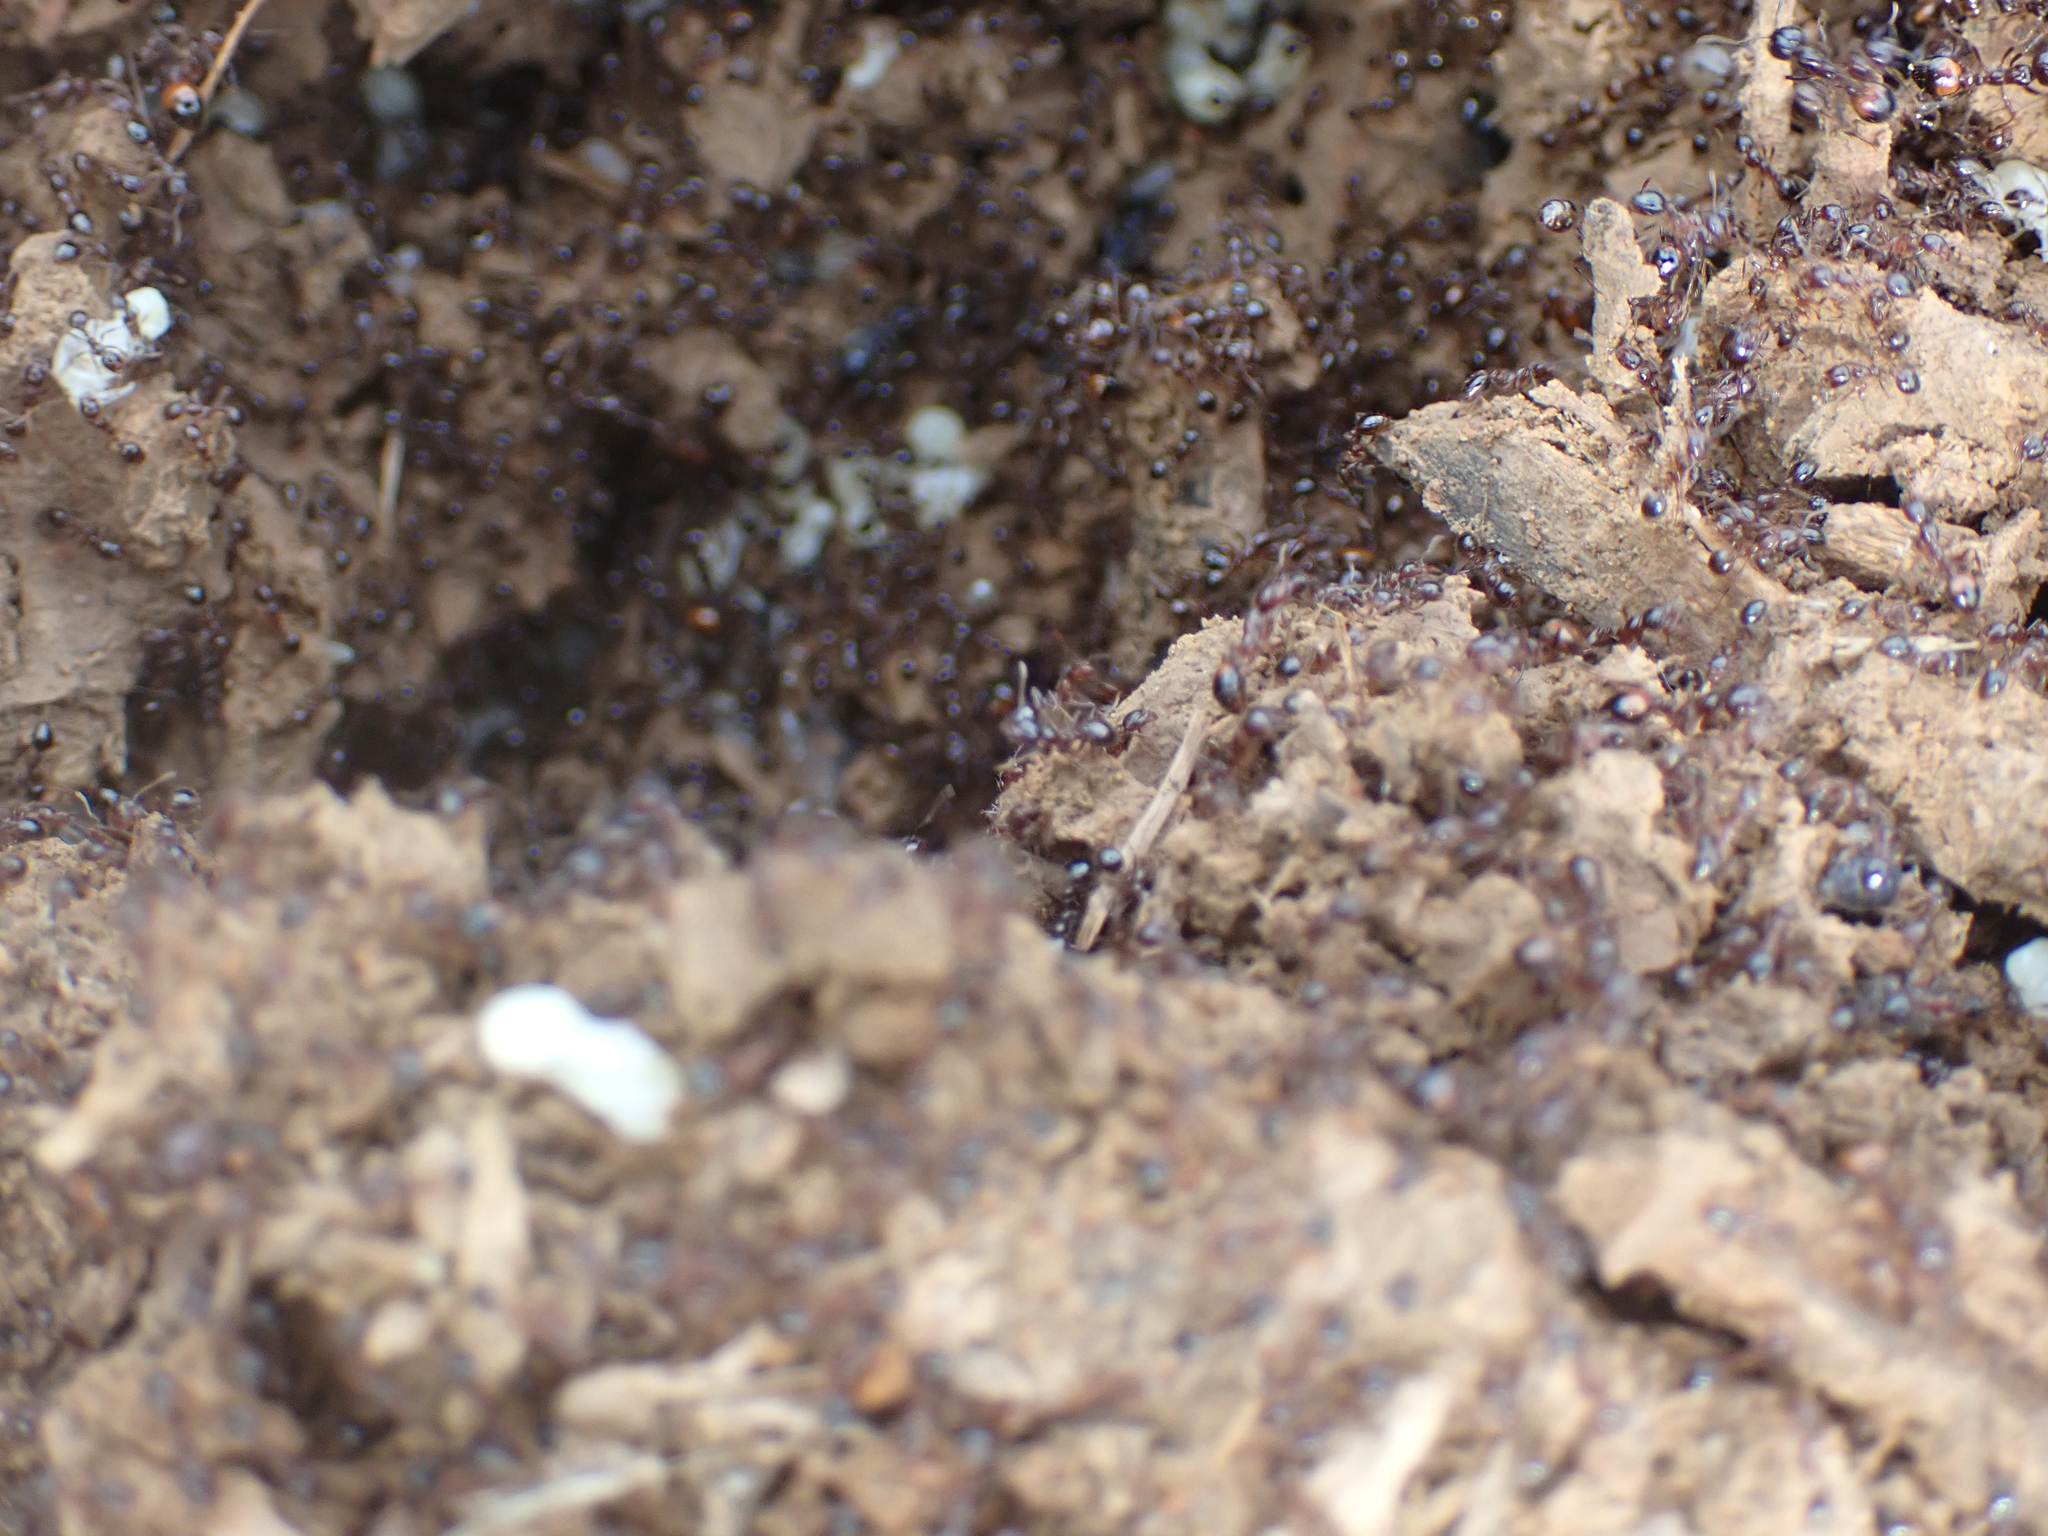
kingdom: Animalia
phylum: Arthropoda
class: Insecta
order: Hymenoptera
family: Formicidae
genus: Solenopsis
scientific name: Solenopsis
